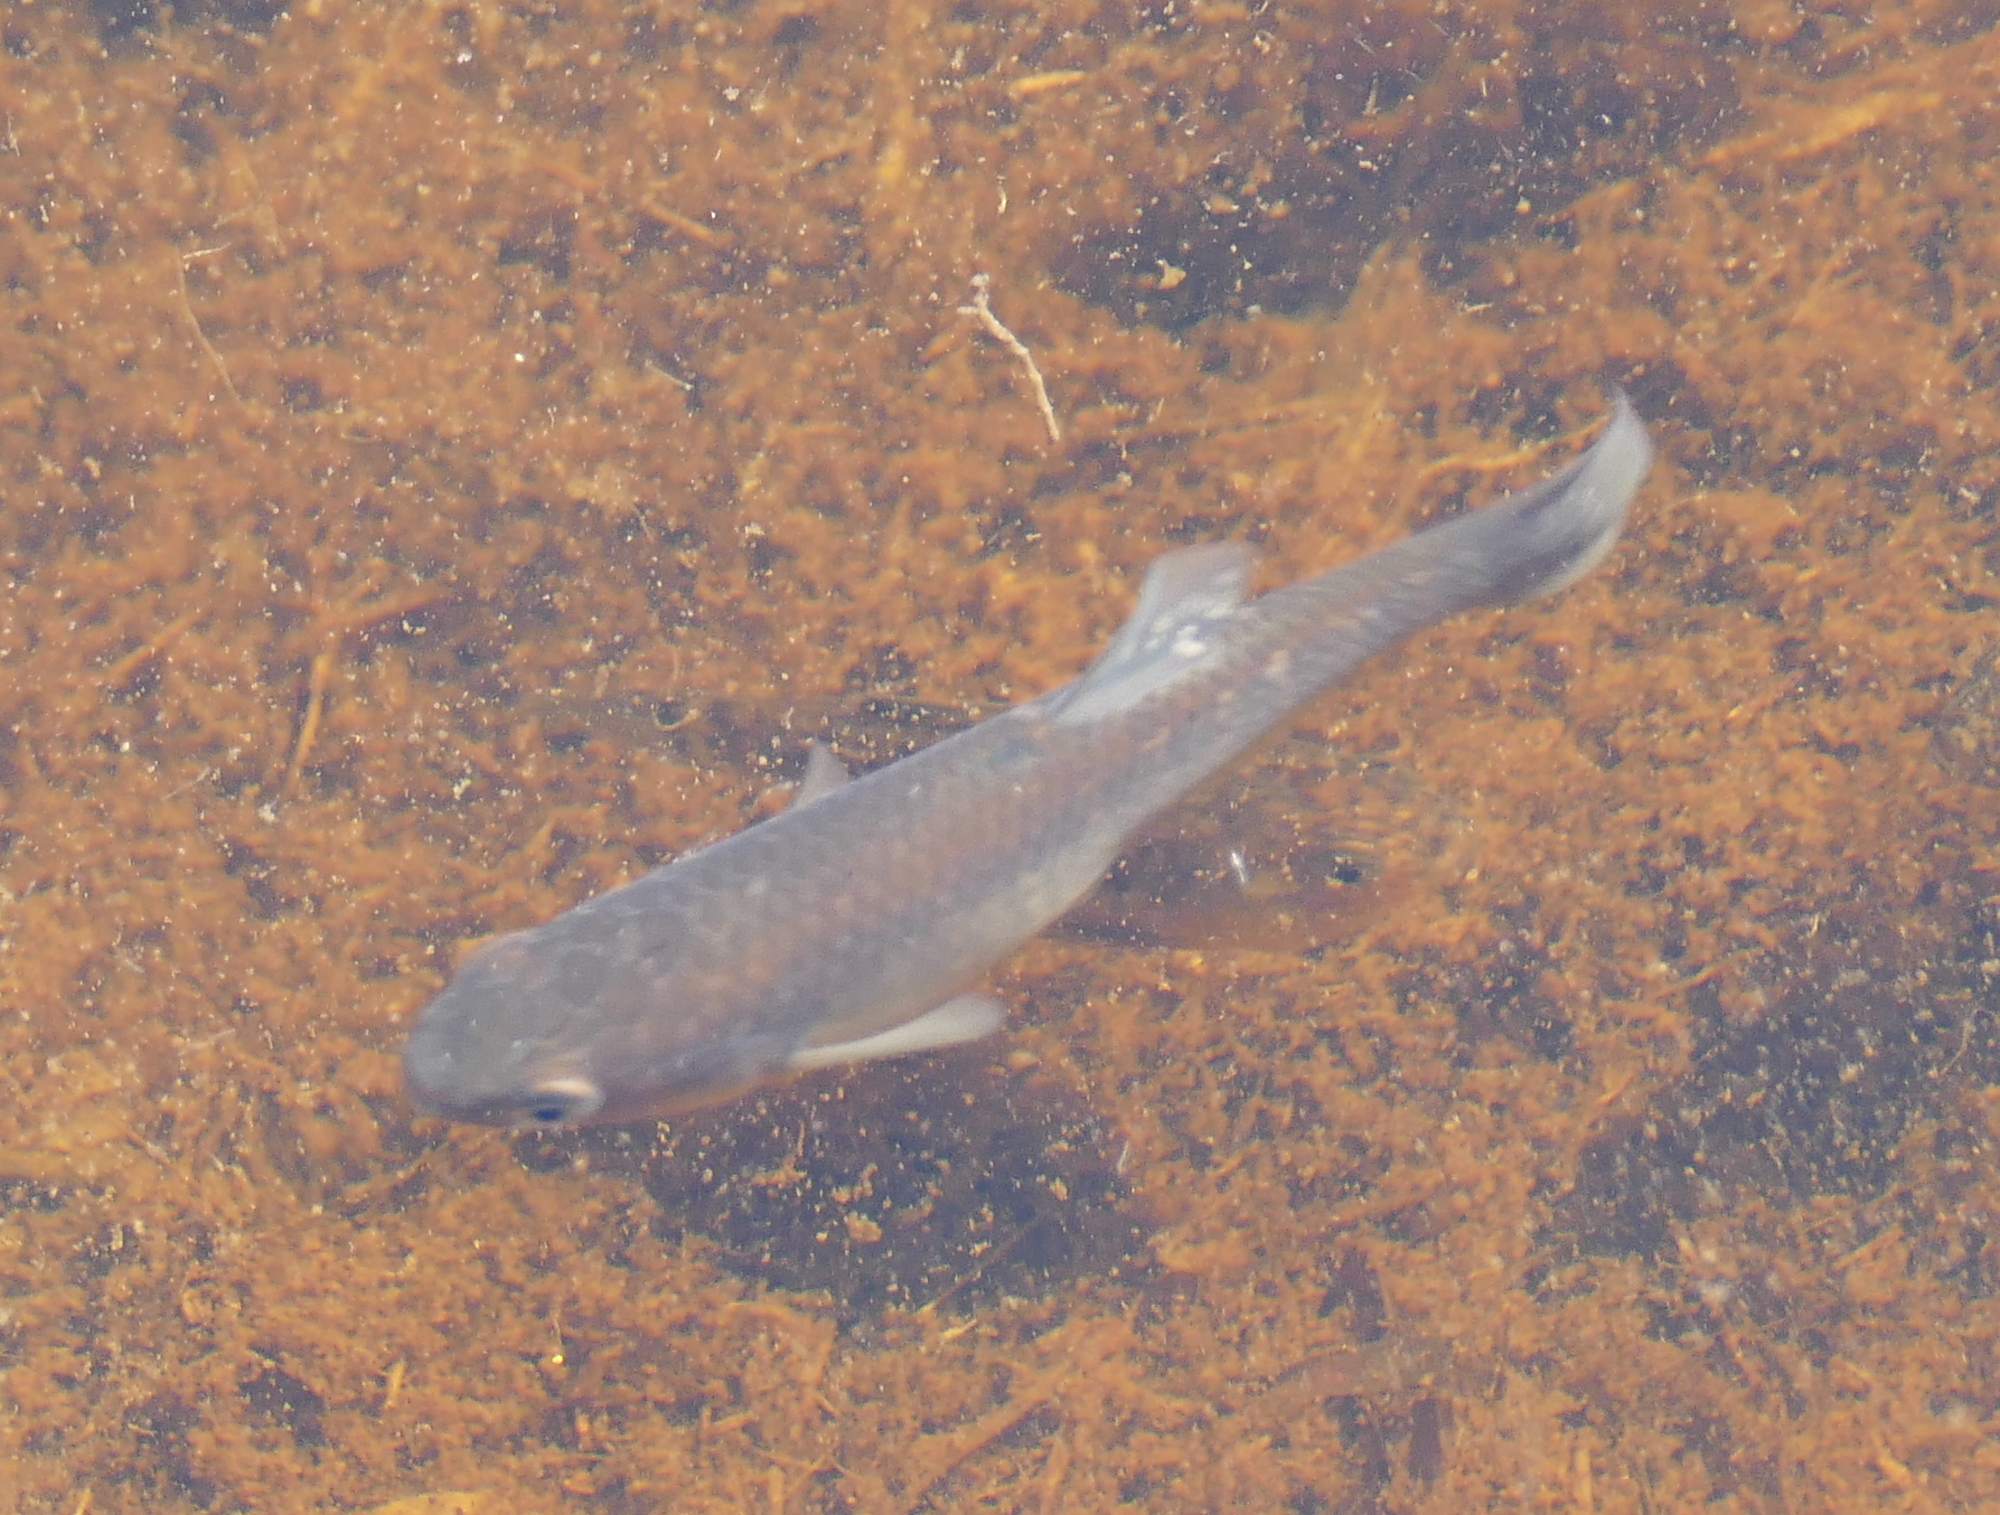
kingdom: Animalia
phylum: Chordata
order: Cyprinodontiformes
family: Fundulidae
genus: Fundulus
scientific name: Fundulus heteroclitus
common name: Mummichog
